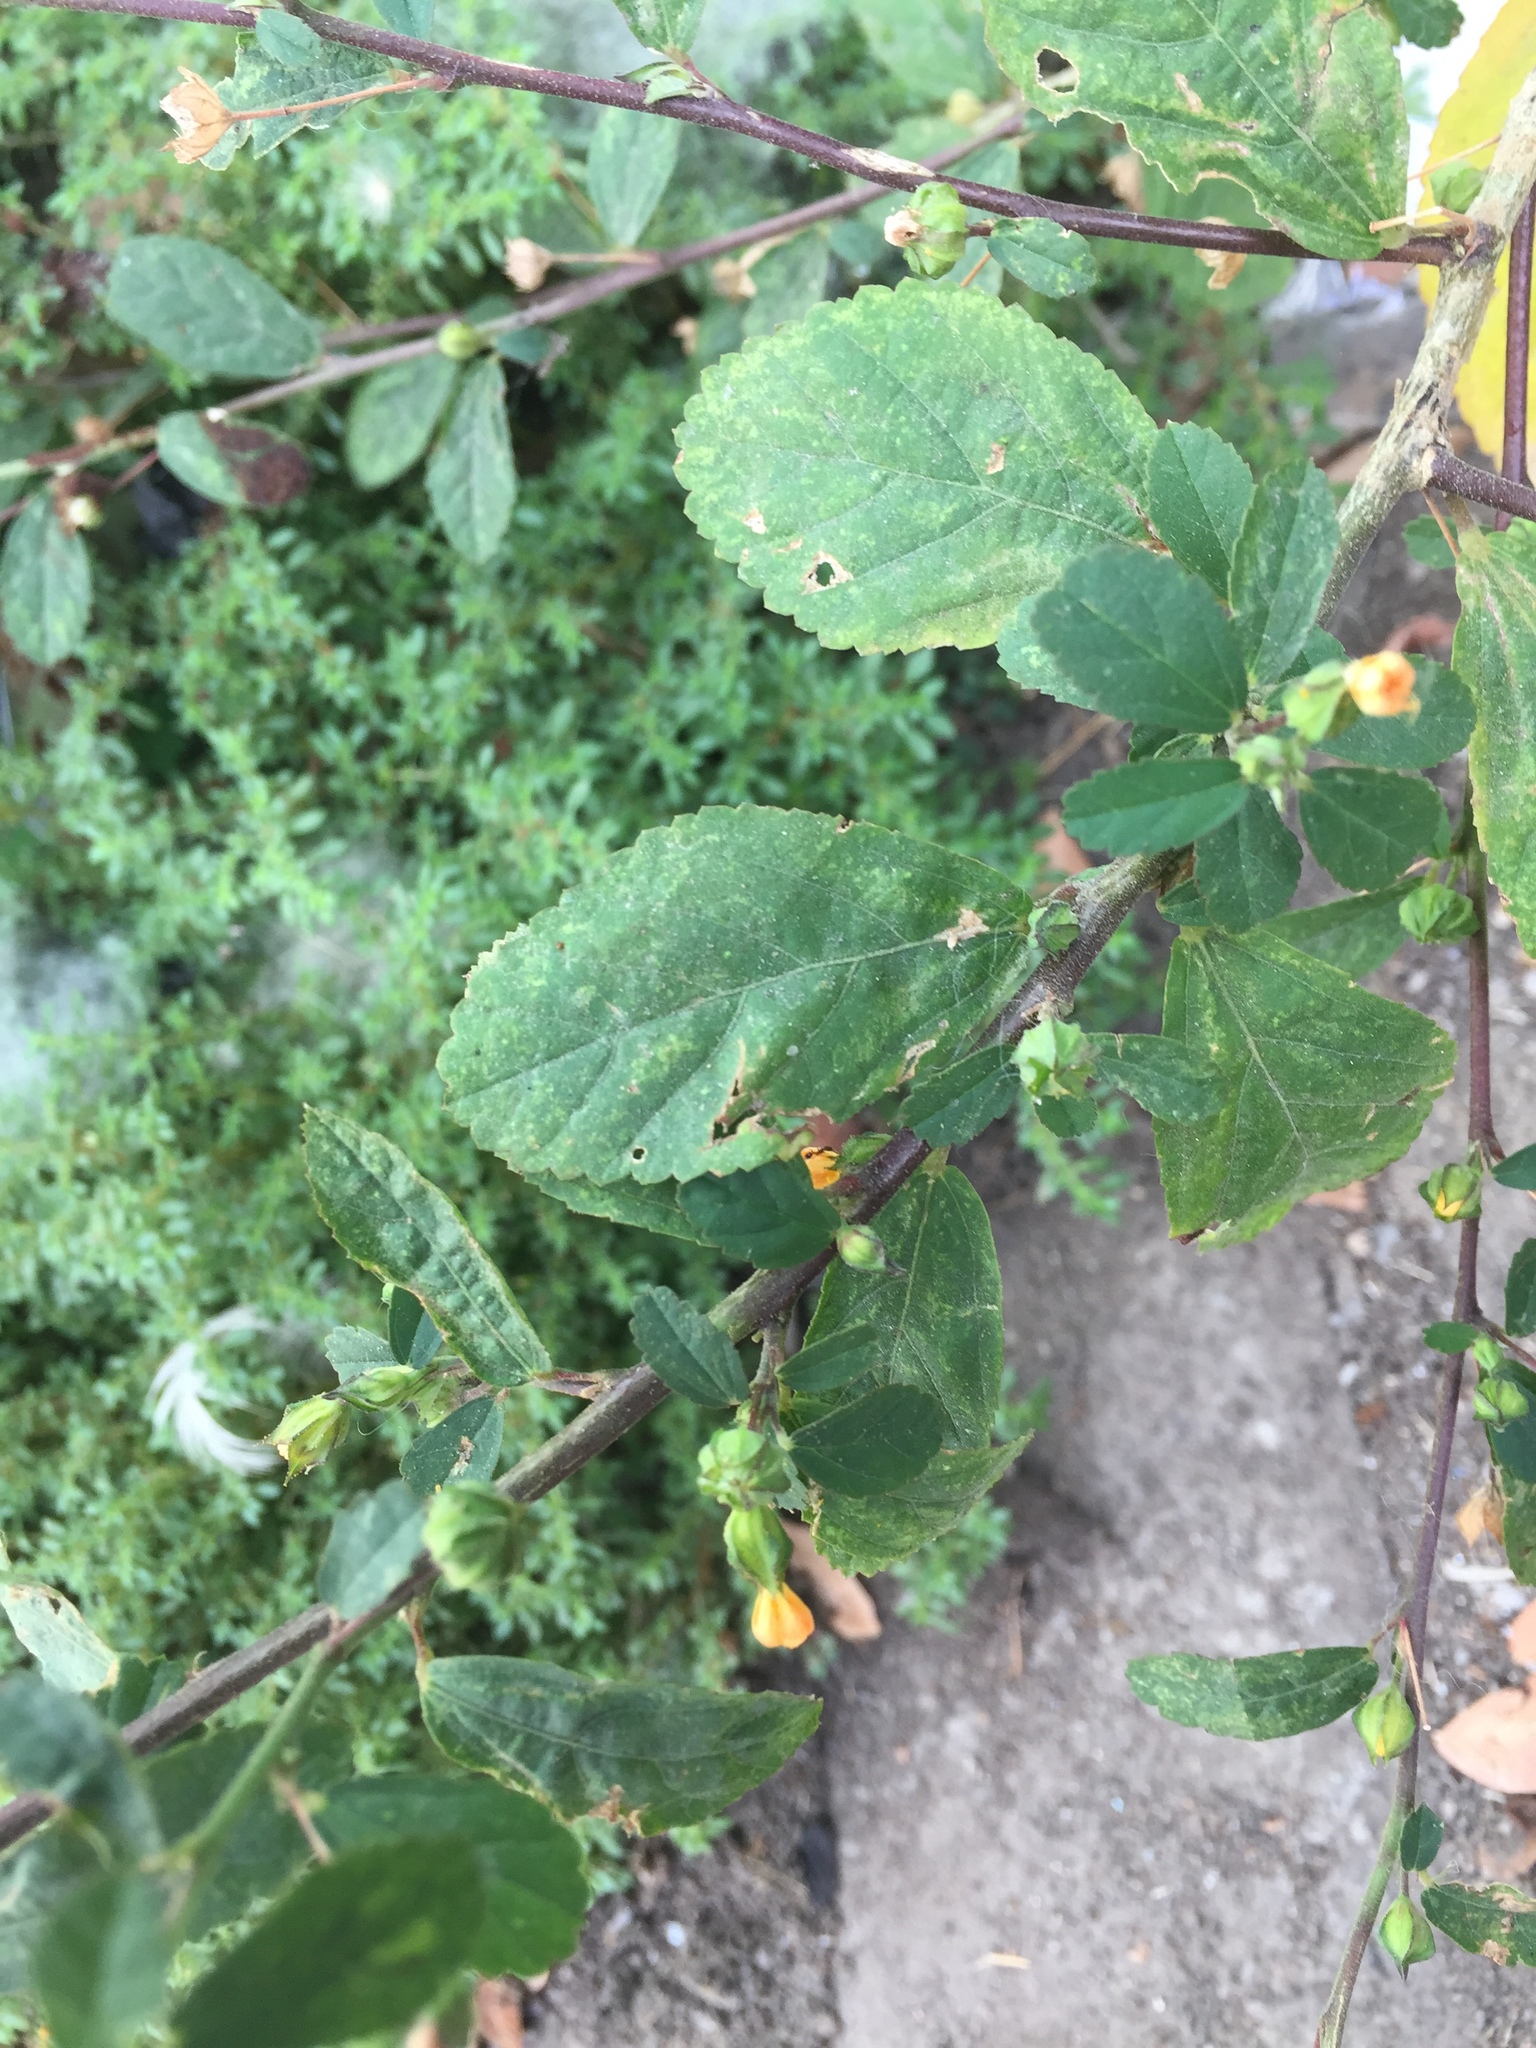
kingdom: Plantae
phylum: Tracheophyta
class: Magnoliopsida
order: Malvales
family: Malvaceae
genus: Sida
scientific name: Sida rhombifolia
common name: Queensland-hemp
